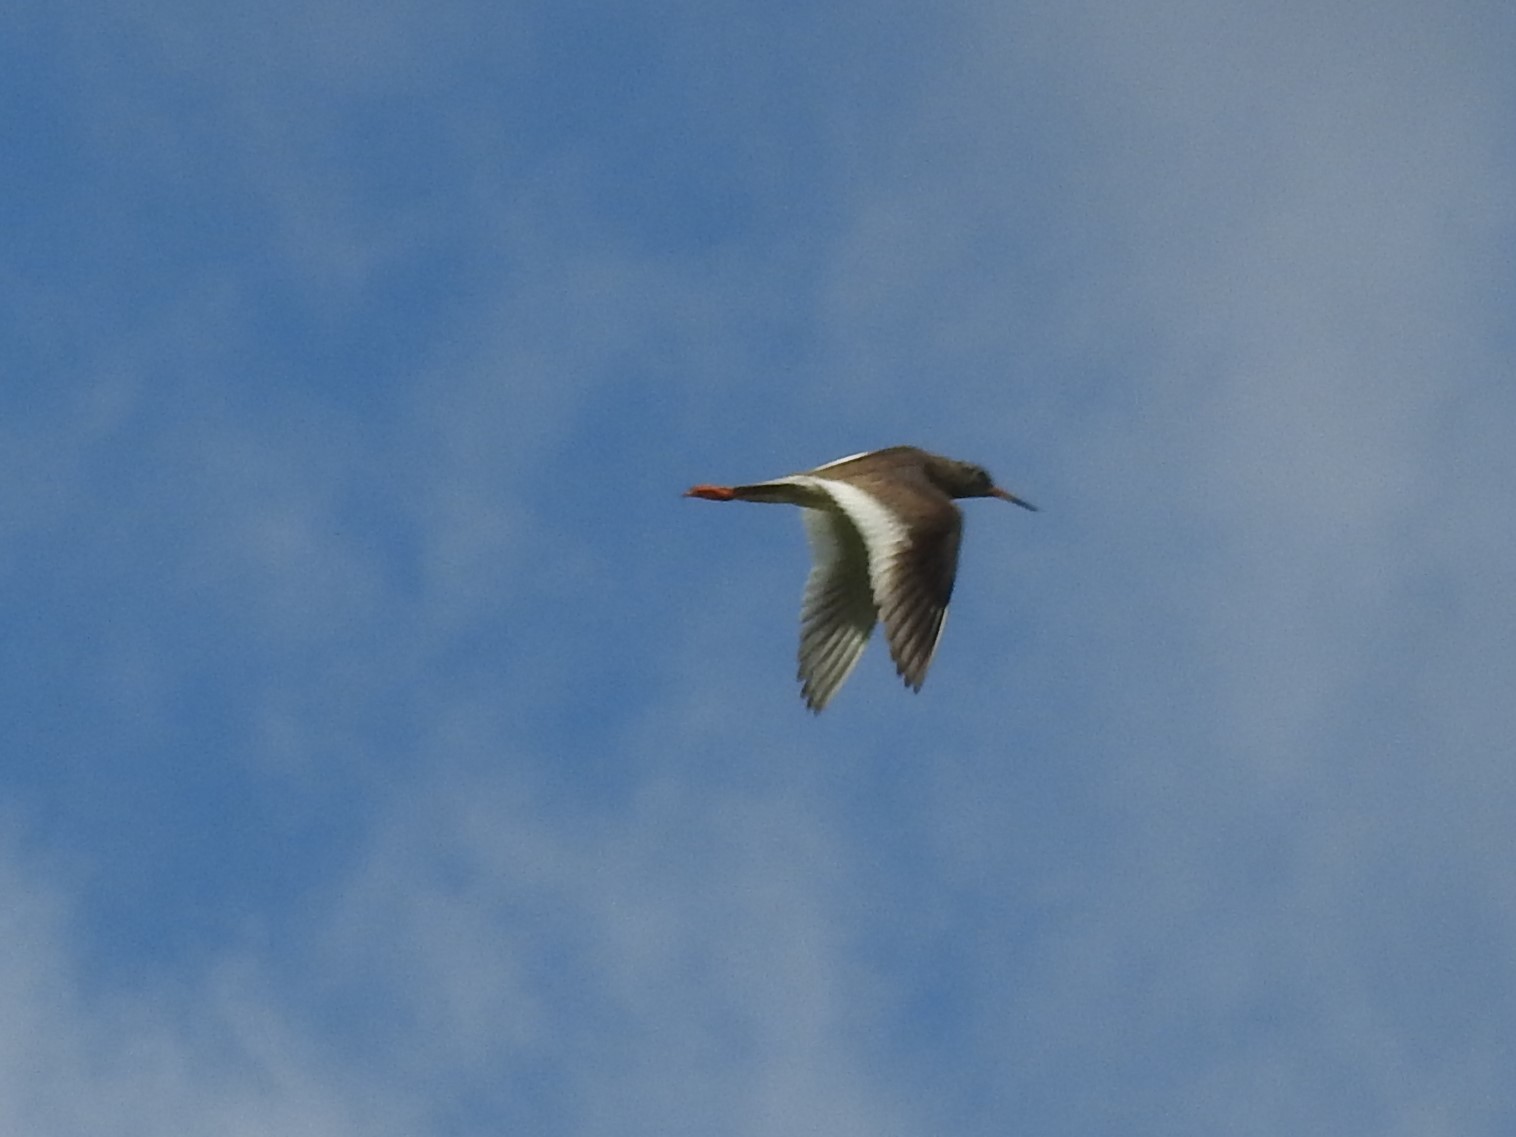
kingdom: Animalia
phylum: Chordata
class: Aves
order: Charadriiformes
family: Scolopacidae
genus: Tringa
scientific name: Tringa totanus
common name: Common redshank
